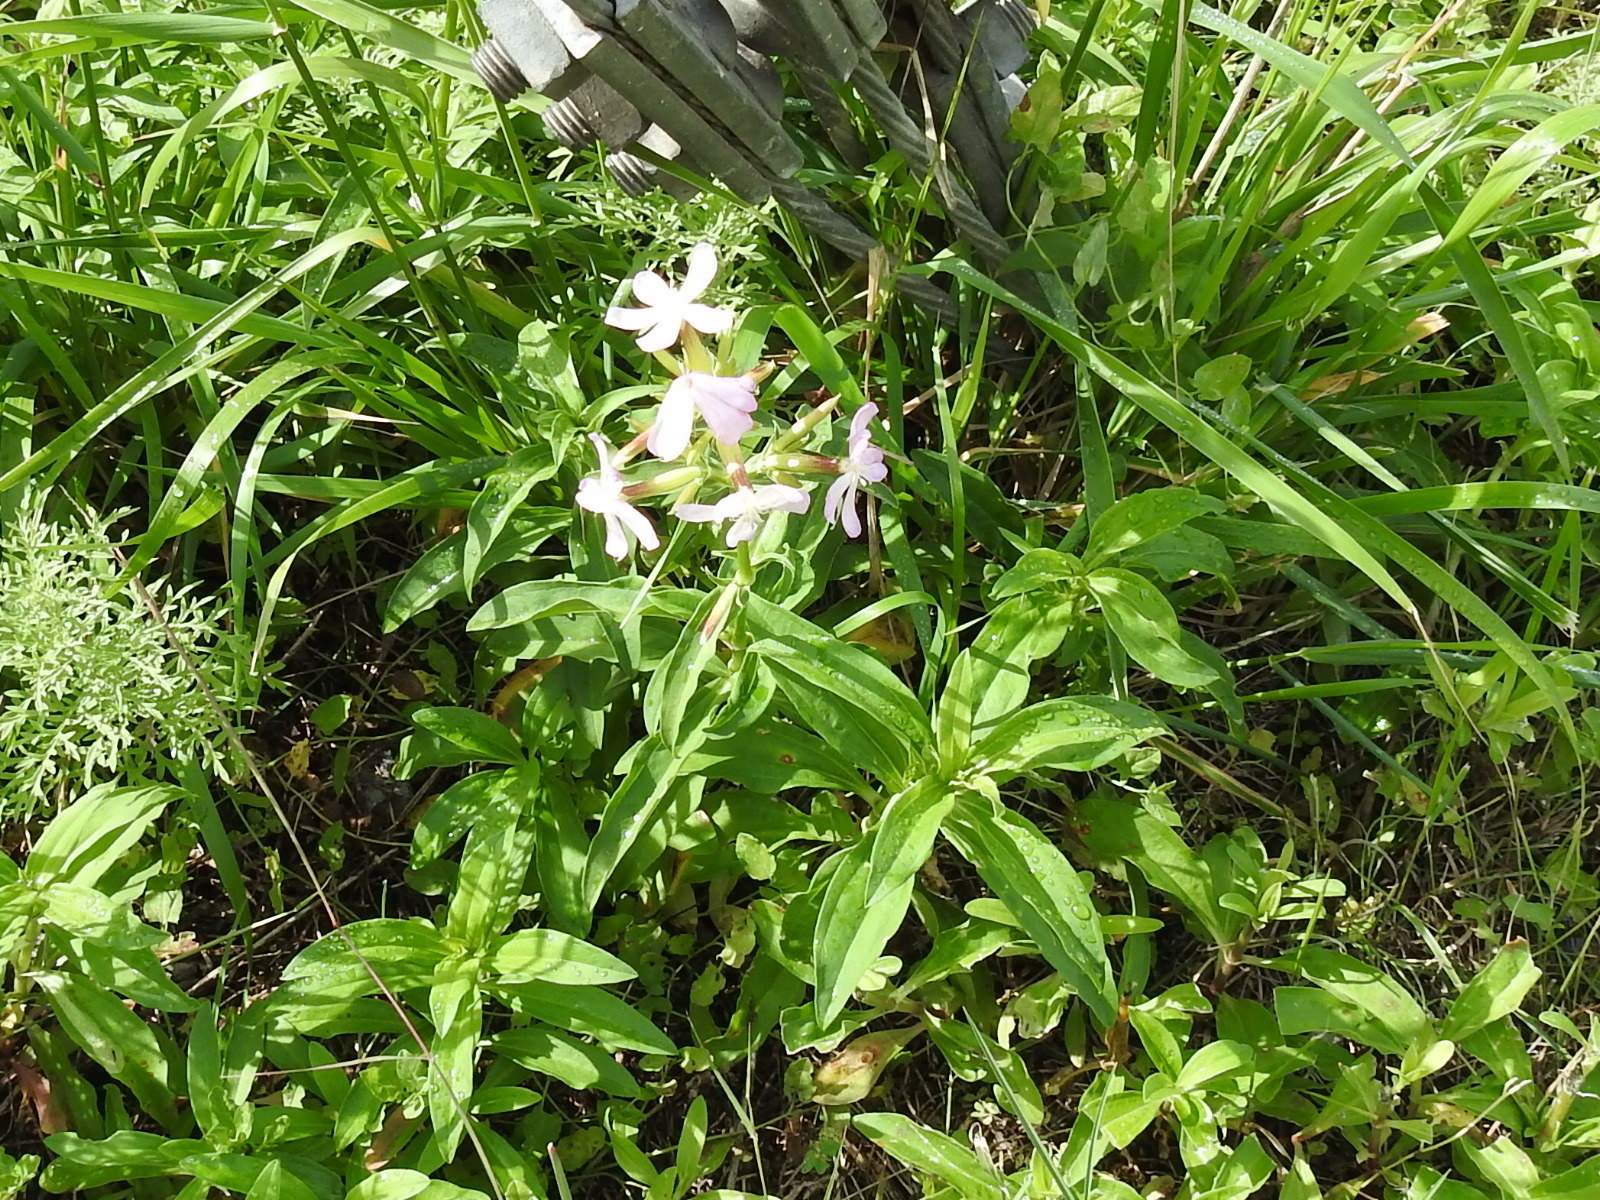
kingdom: Plantae
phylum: Tracheophyta
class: Magnoliopsida
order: Caryophyllales
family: Caryophyllaceae
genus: Saponaria
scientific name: Saponaria officinalis
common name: Soapwort
